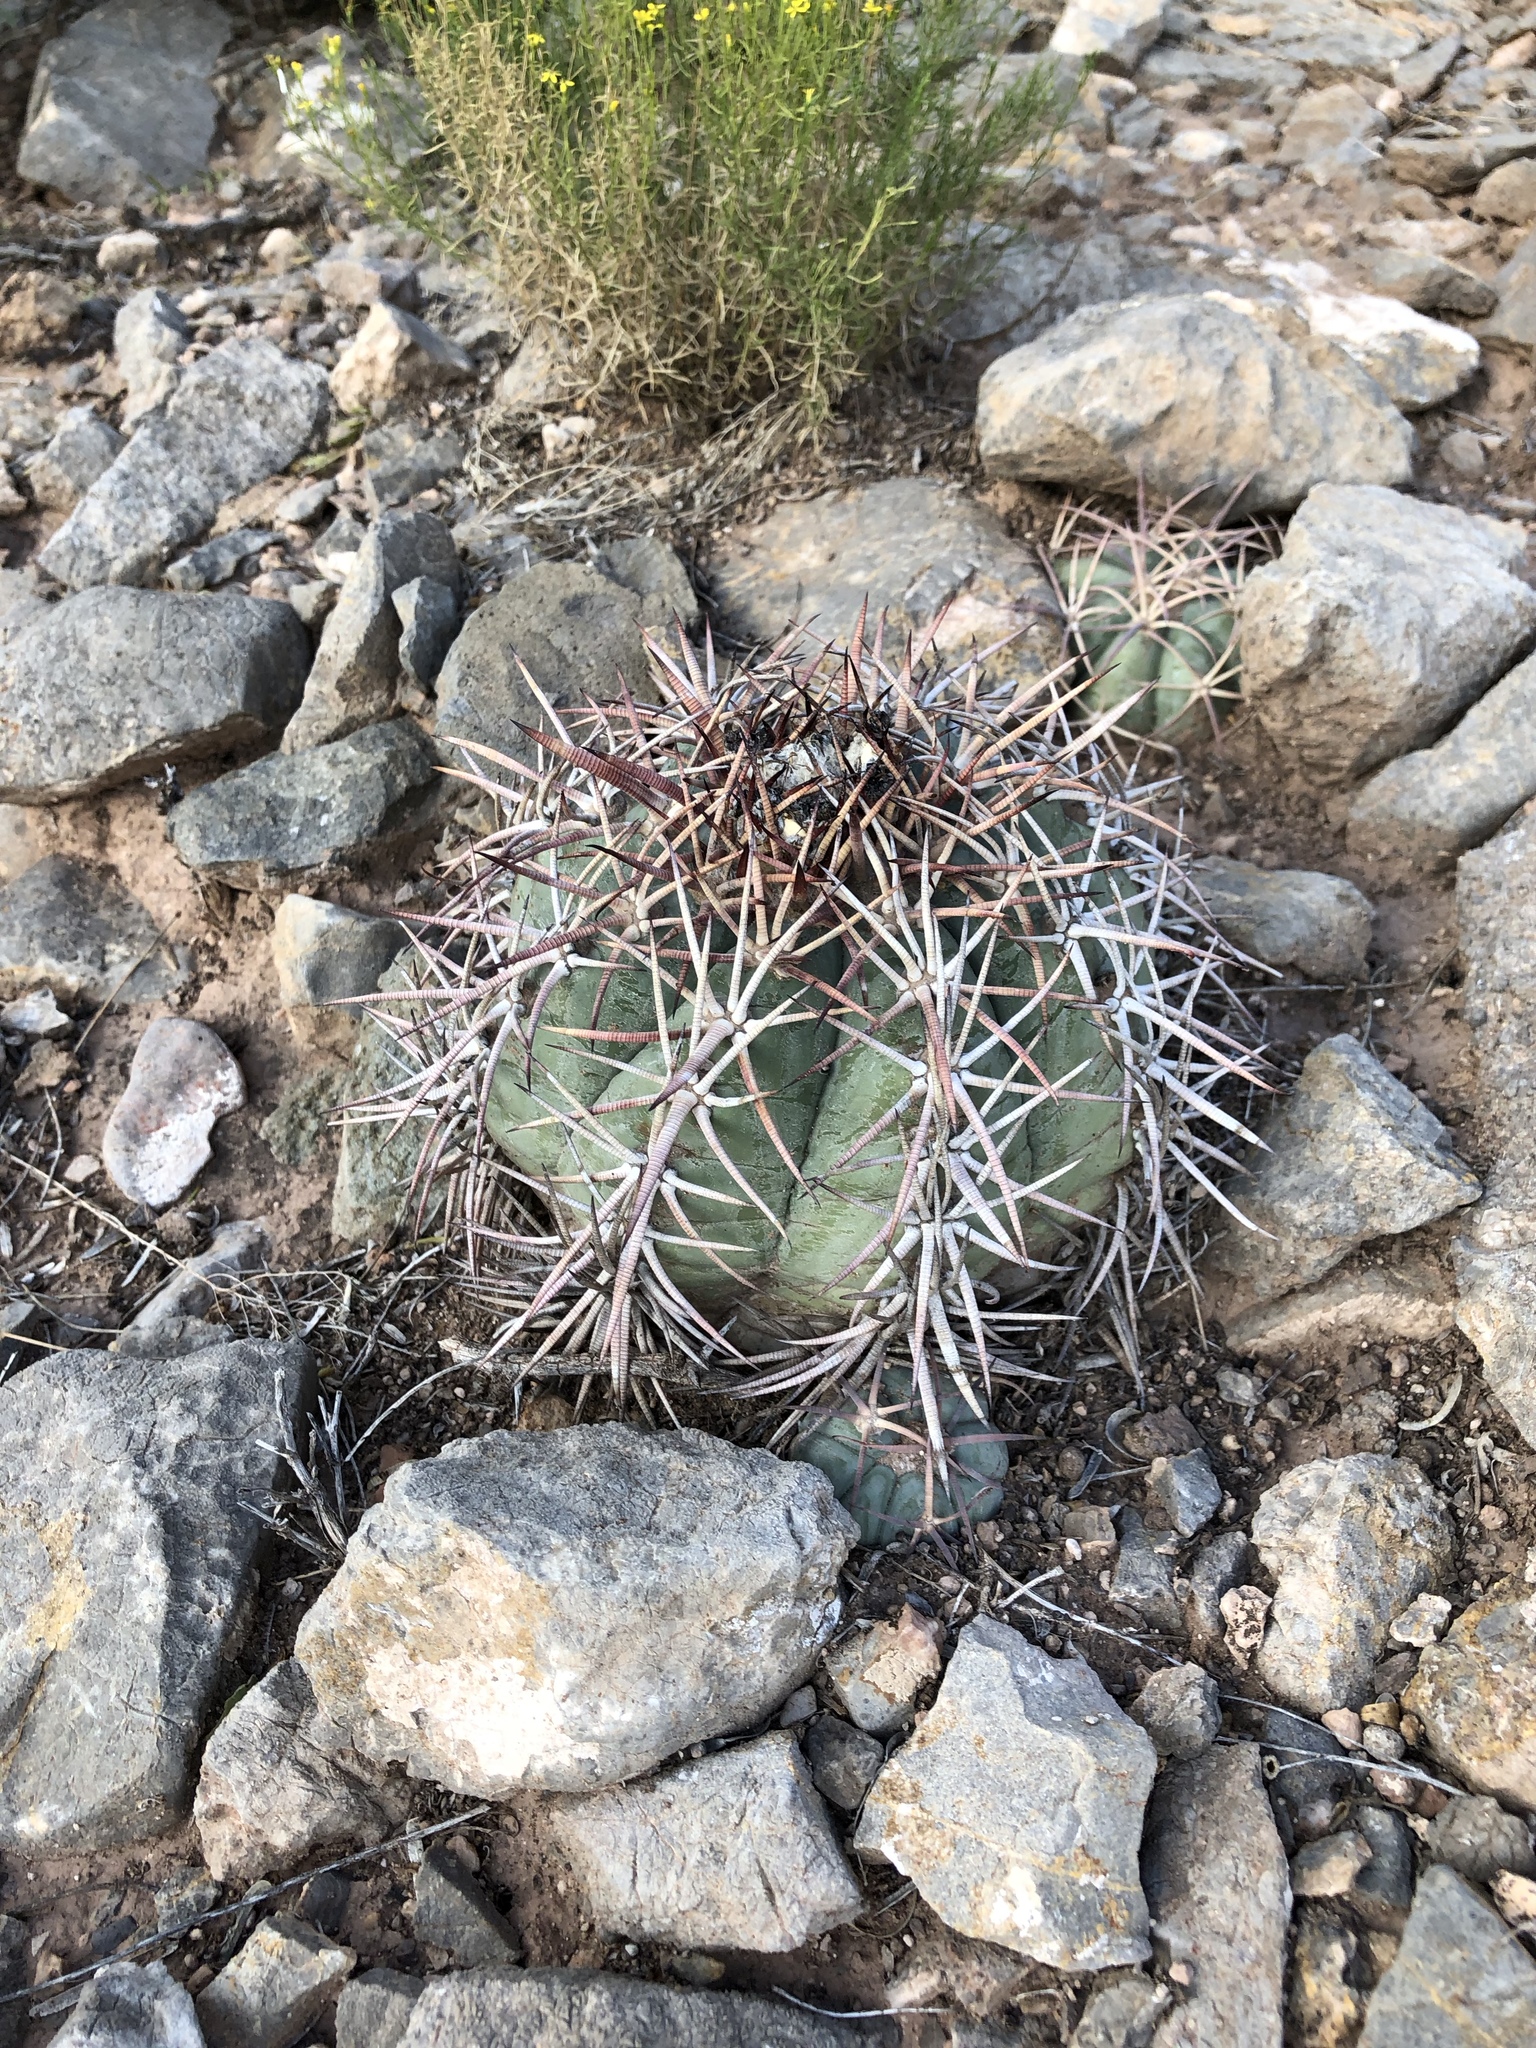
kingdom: Plantae
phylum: Tracheophyta
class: Magnoliopsida
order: Caryophyllales
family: Cactaceae
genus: Echinocactus
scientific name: Echinocactus horizonthalonius
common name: Devilshead
